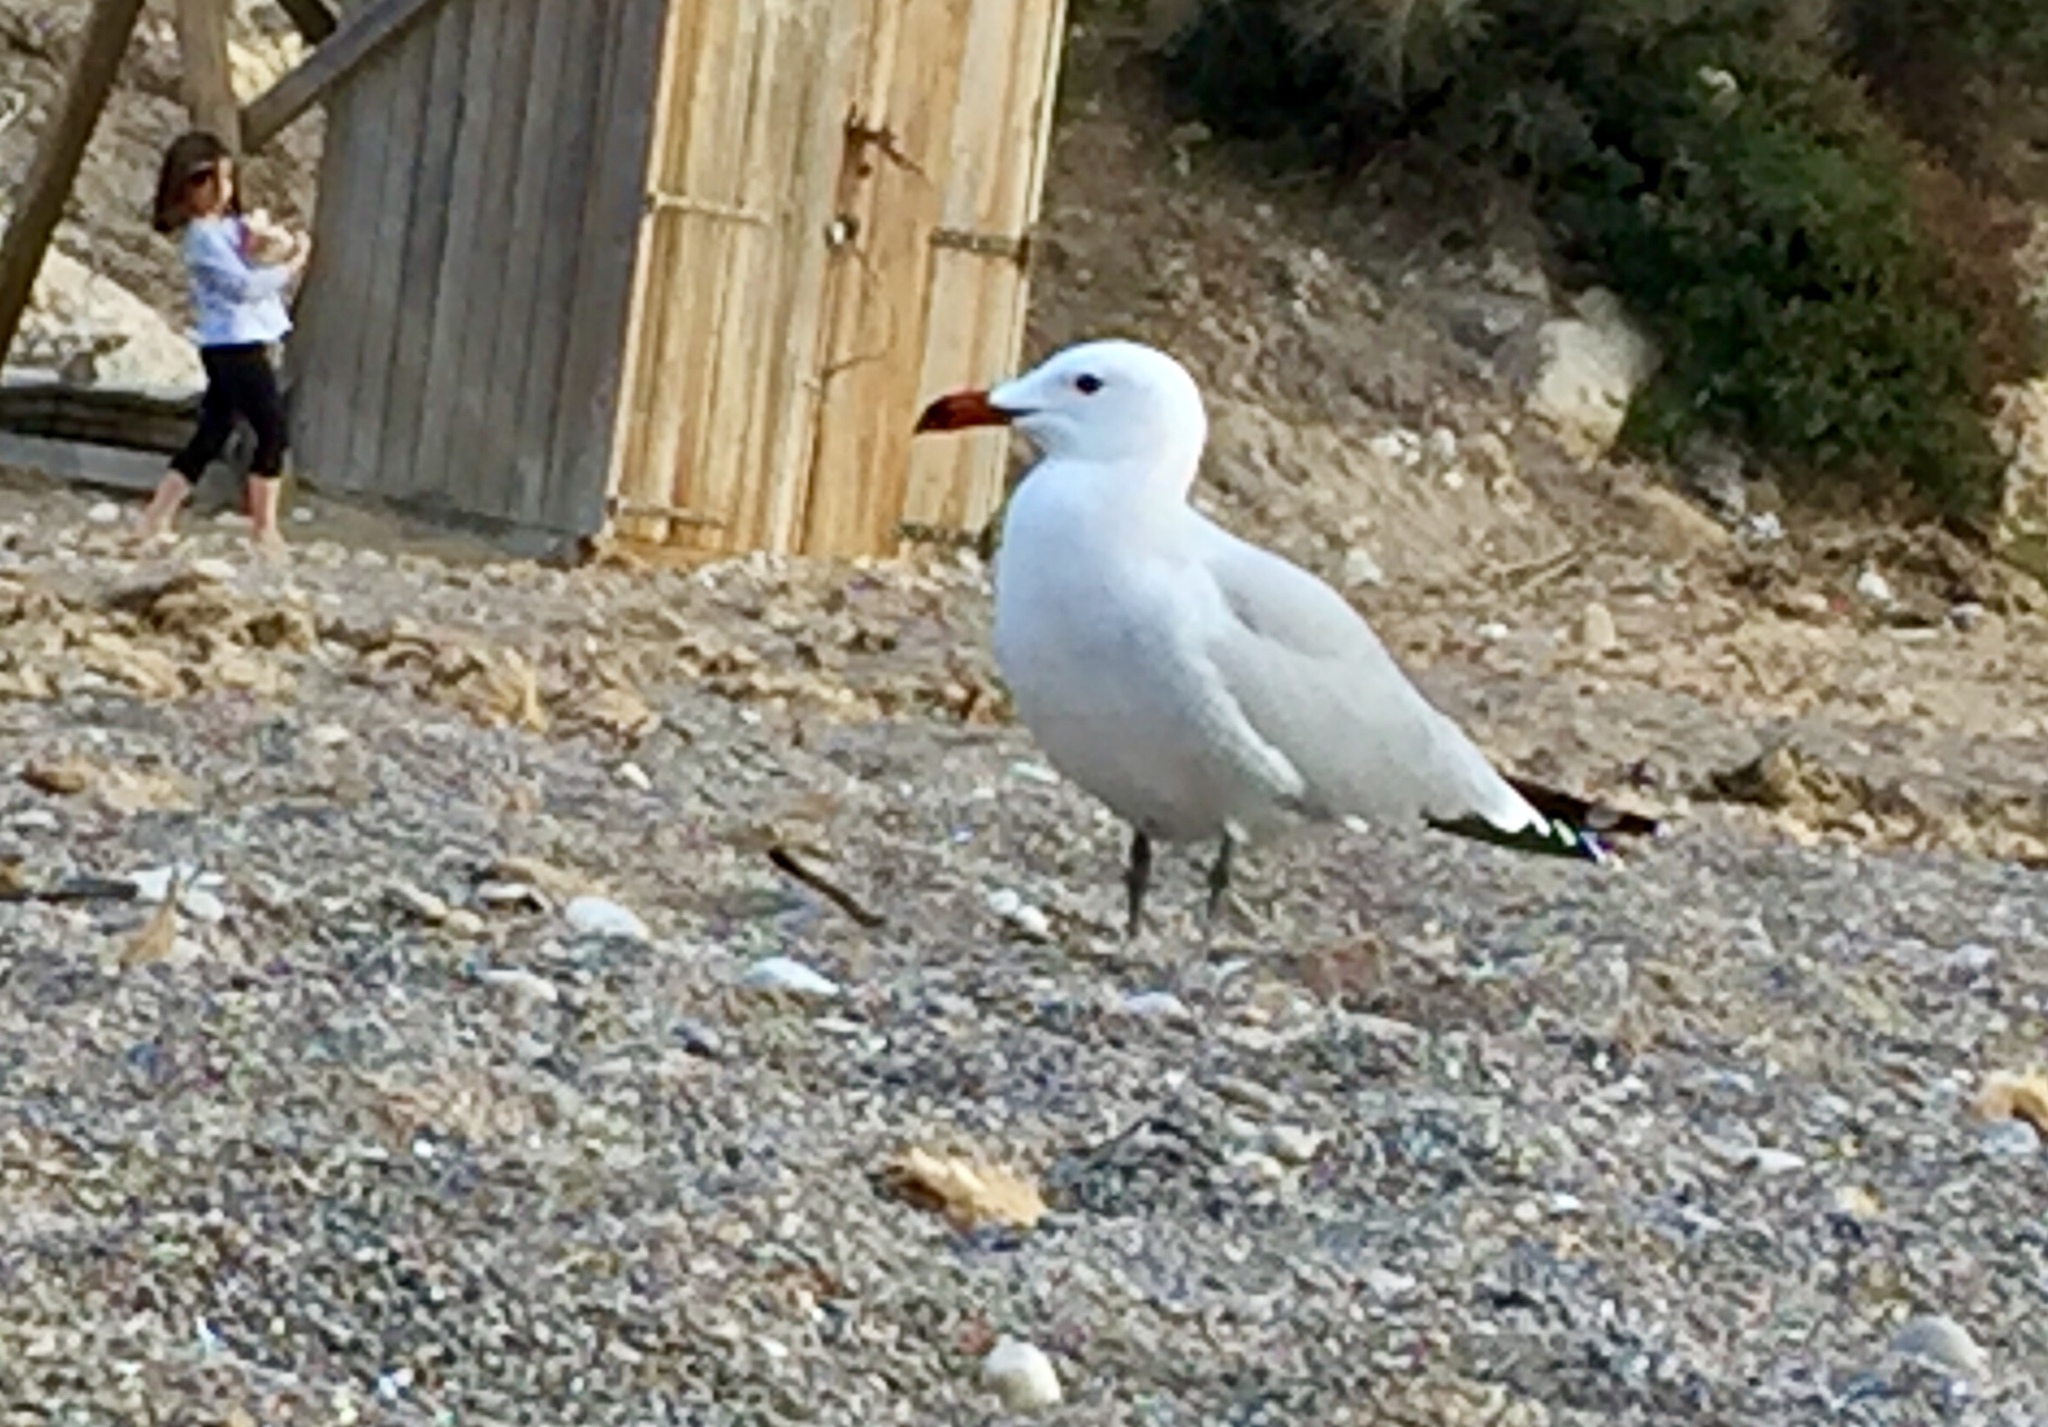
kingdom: Animalia
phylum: Chordata
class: Aves
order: Charadriiformes
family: Laridae
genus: Ichthyaetus
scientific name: Ichthyaetus audouinii
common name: Audouin's gull
